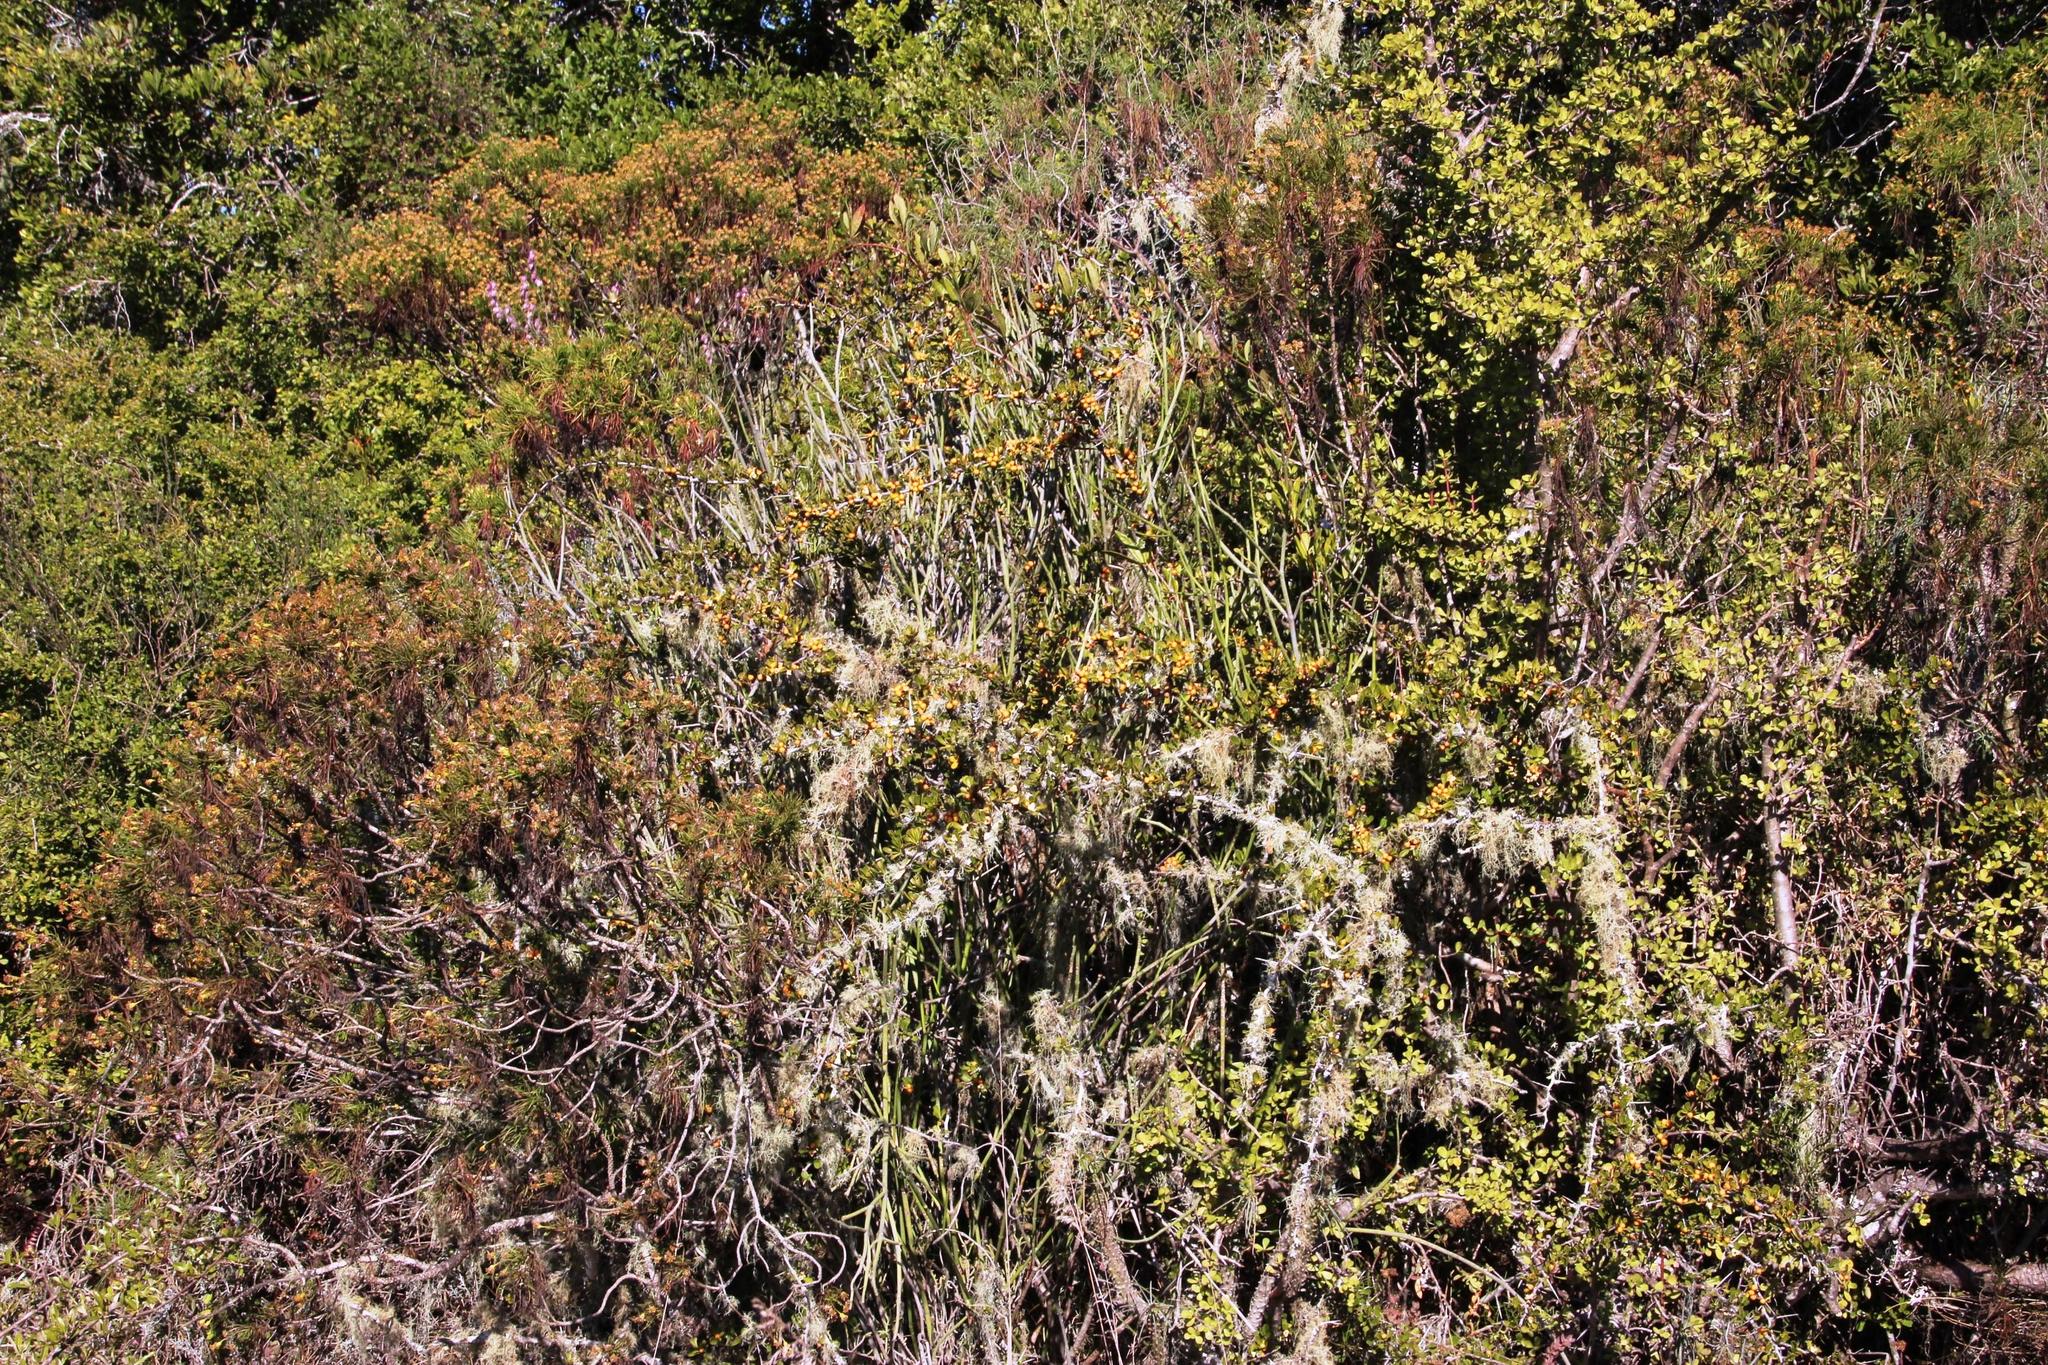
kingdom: Plantae
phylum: Tracheophyta
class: Magnoliopsida
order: Celastrales
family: Celastraceae
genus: Gymnosporia
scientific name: Gymnosporia capitata
